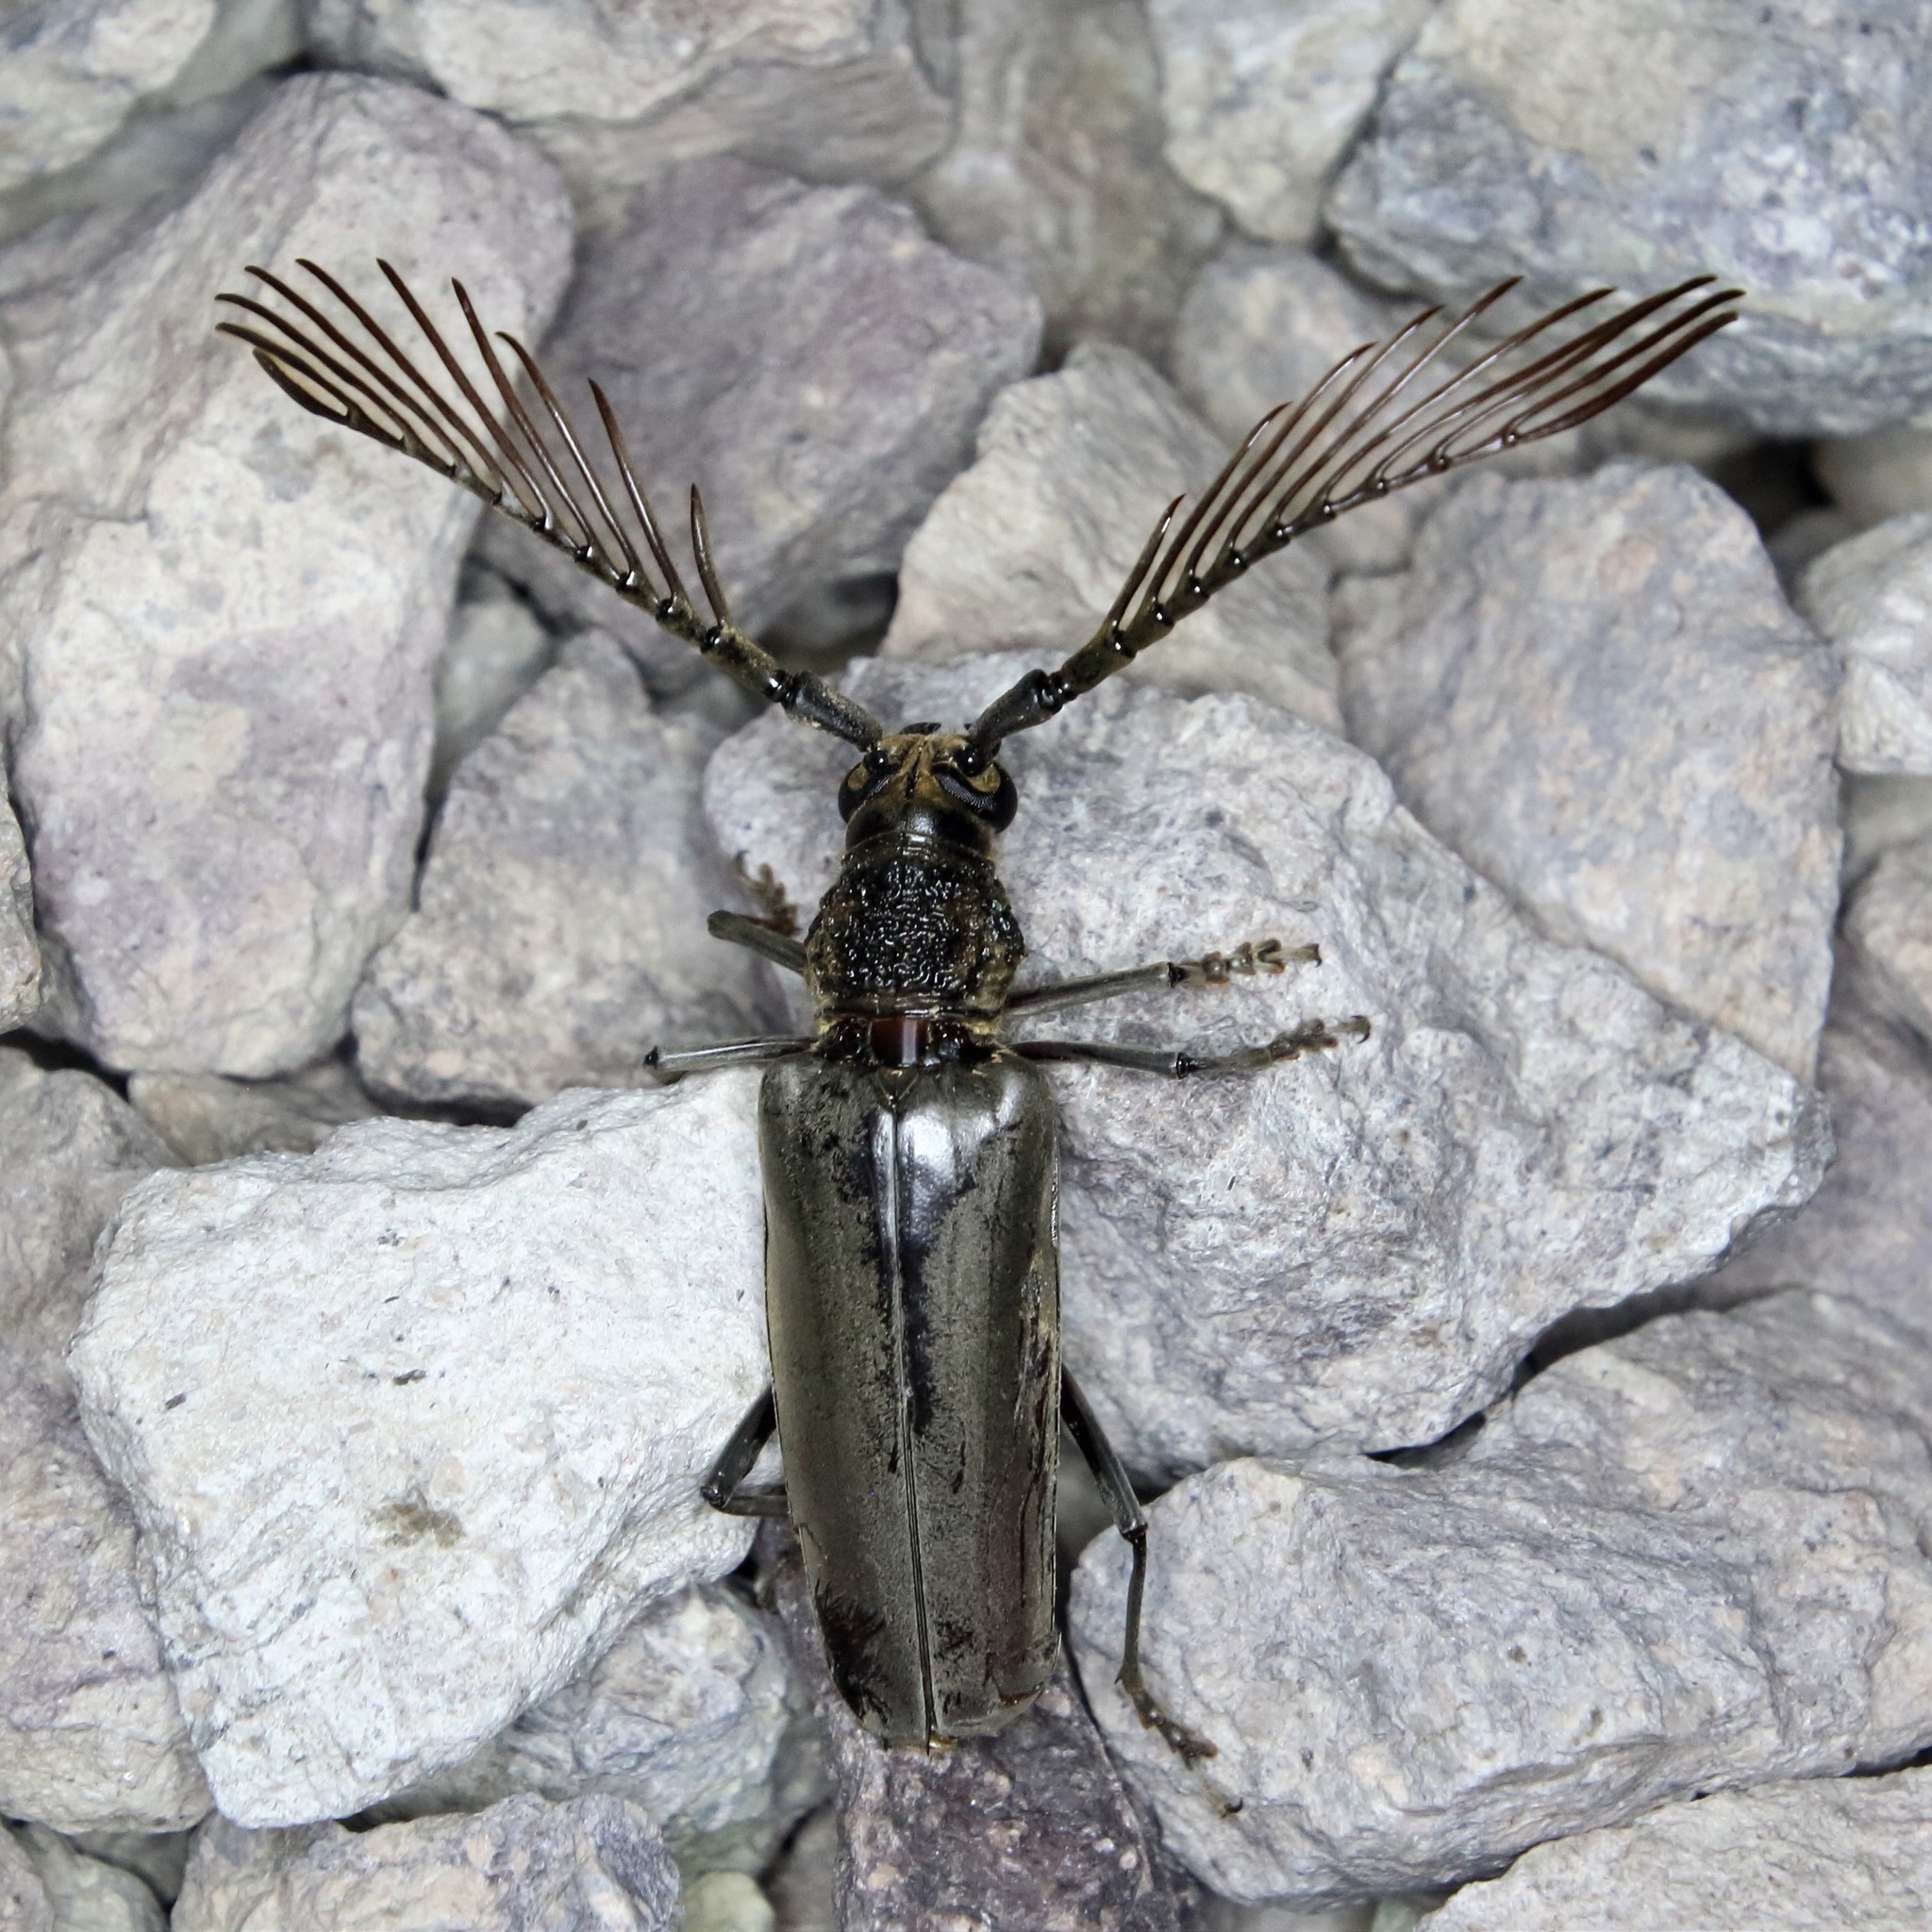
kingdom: Animalia
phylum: Arthropoda
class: Insecta
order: Coleoptera
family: Cerambycidae
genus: Cyriopalus
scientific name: Cyriopalus wallacei
